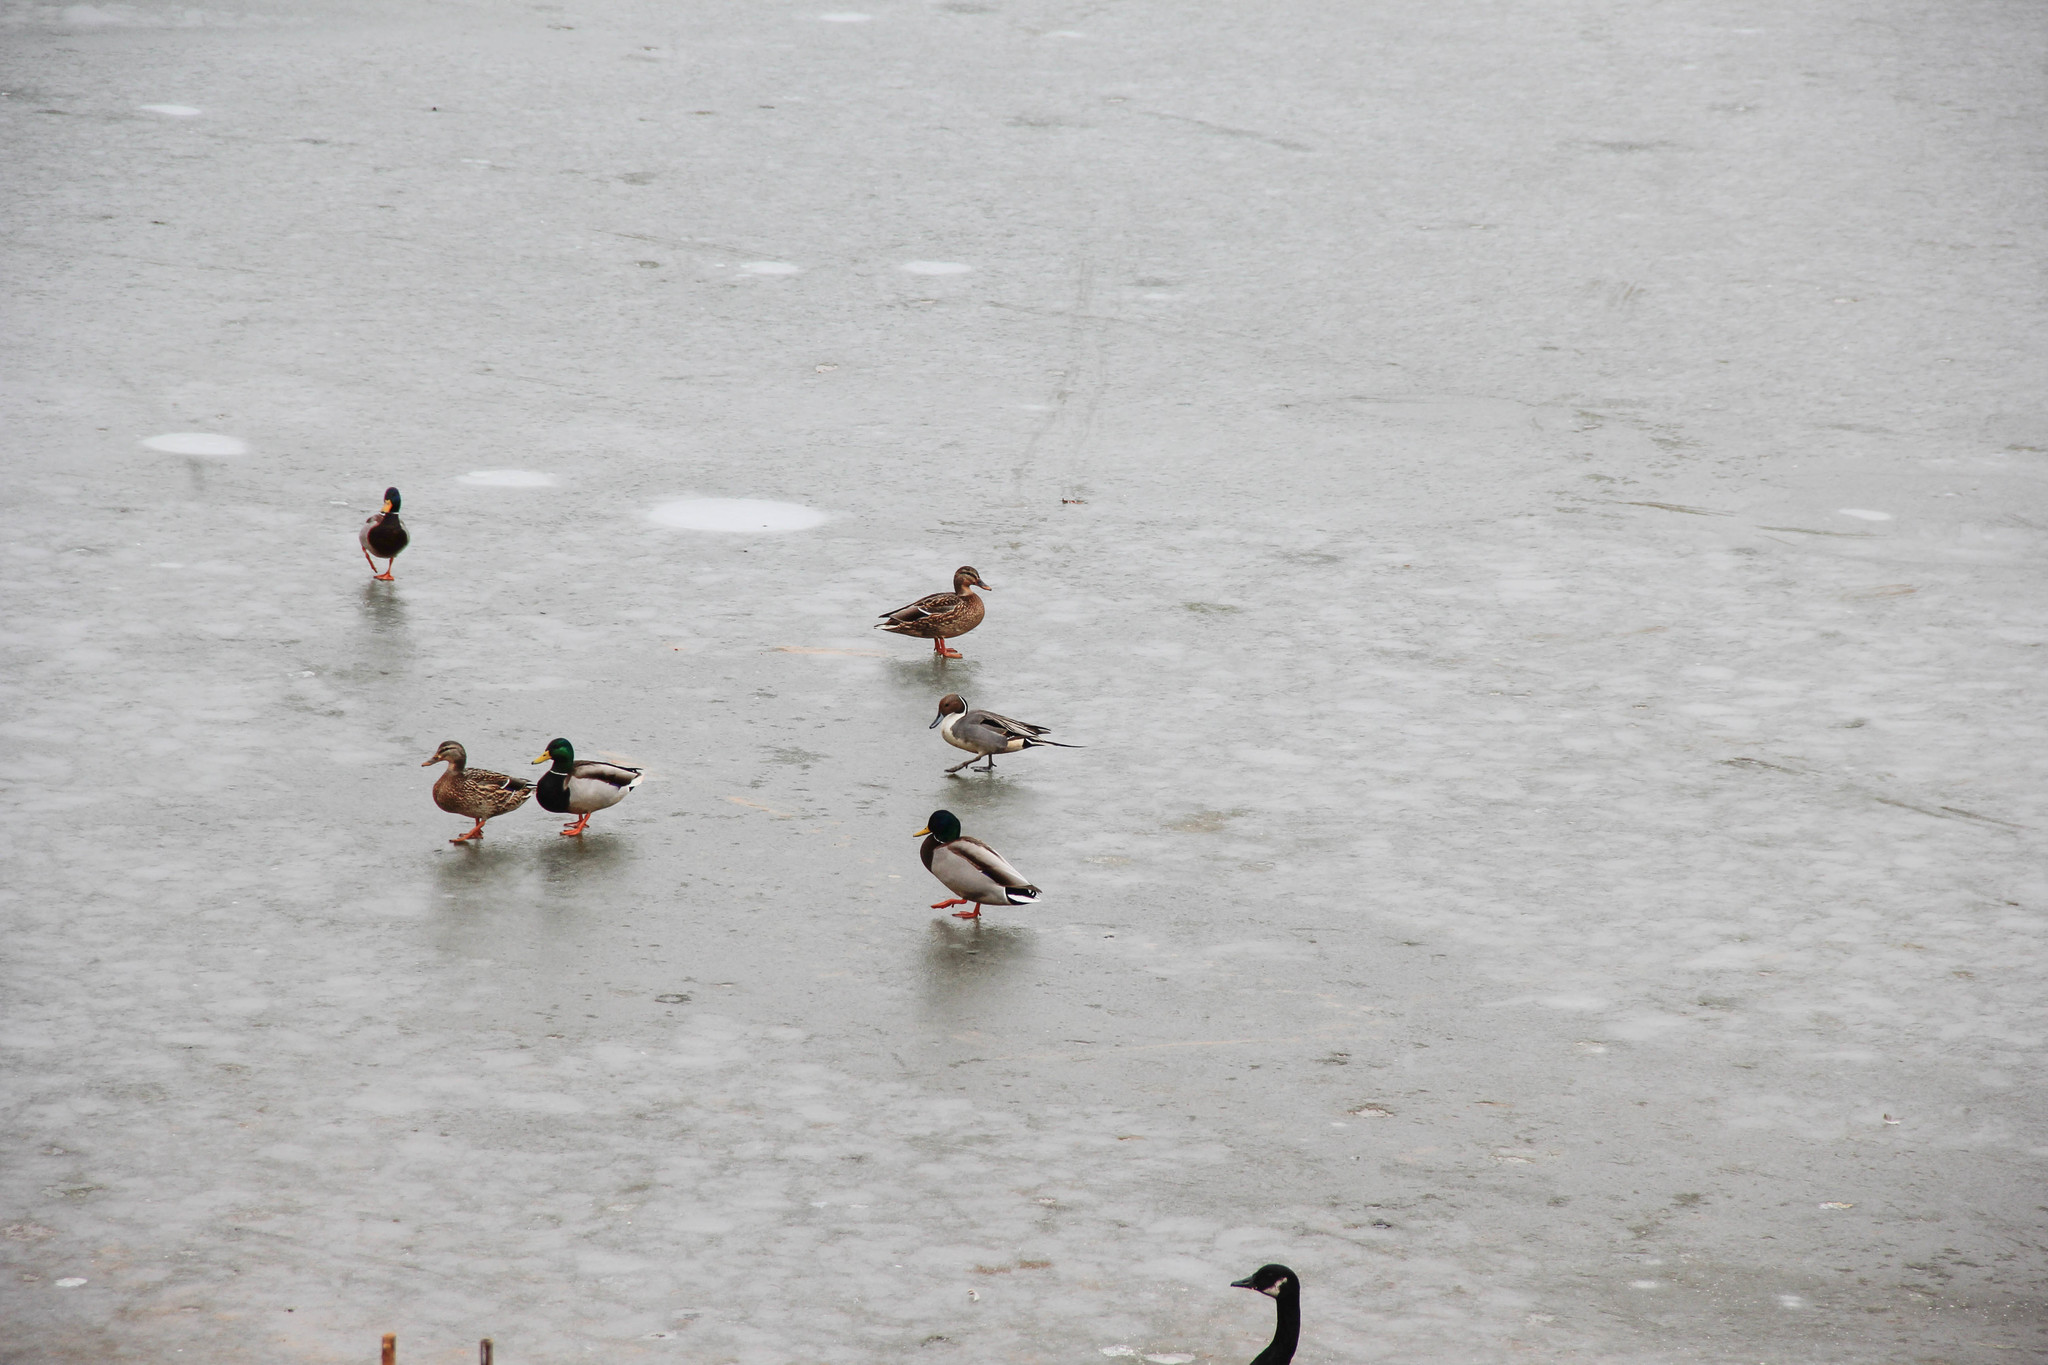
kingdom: Animalia
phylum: Chordata
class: Aves
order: Anseriformes
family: Anatidae
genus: Anas
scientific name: Anas acuta
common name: Northern pintail
